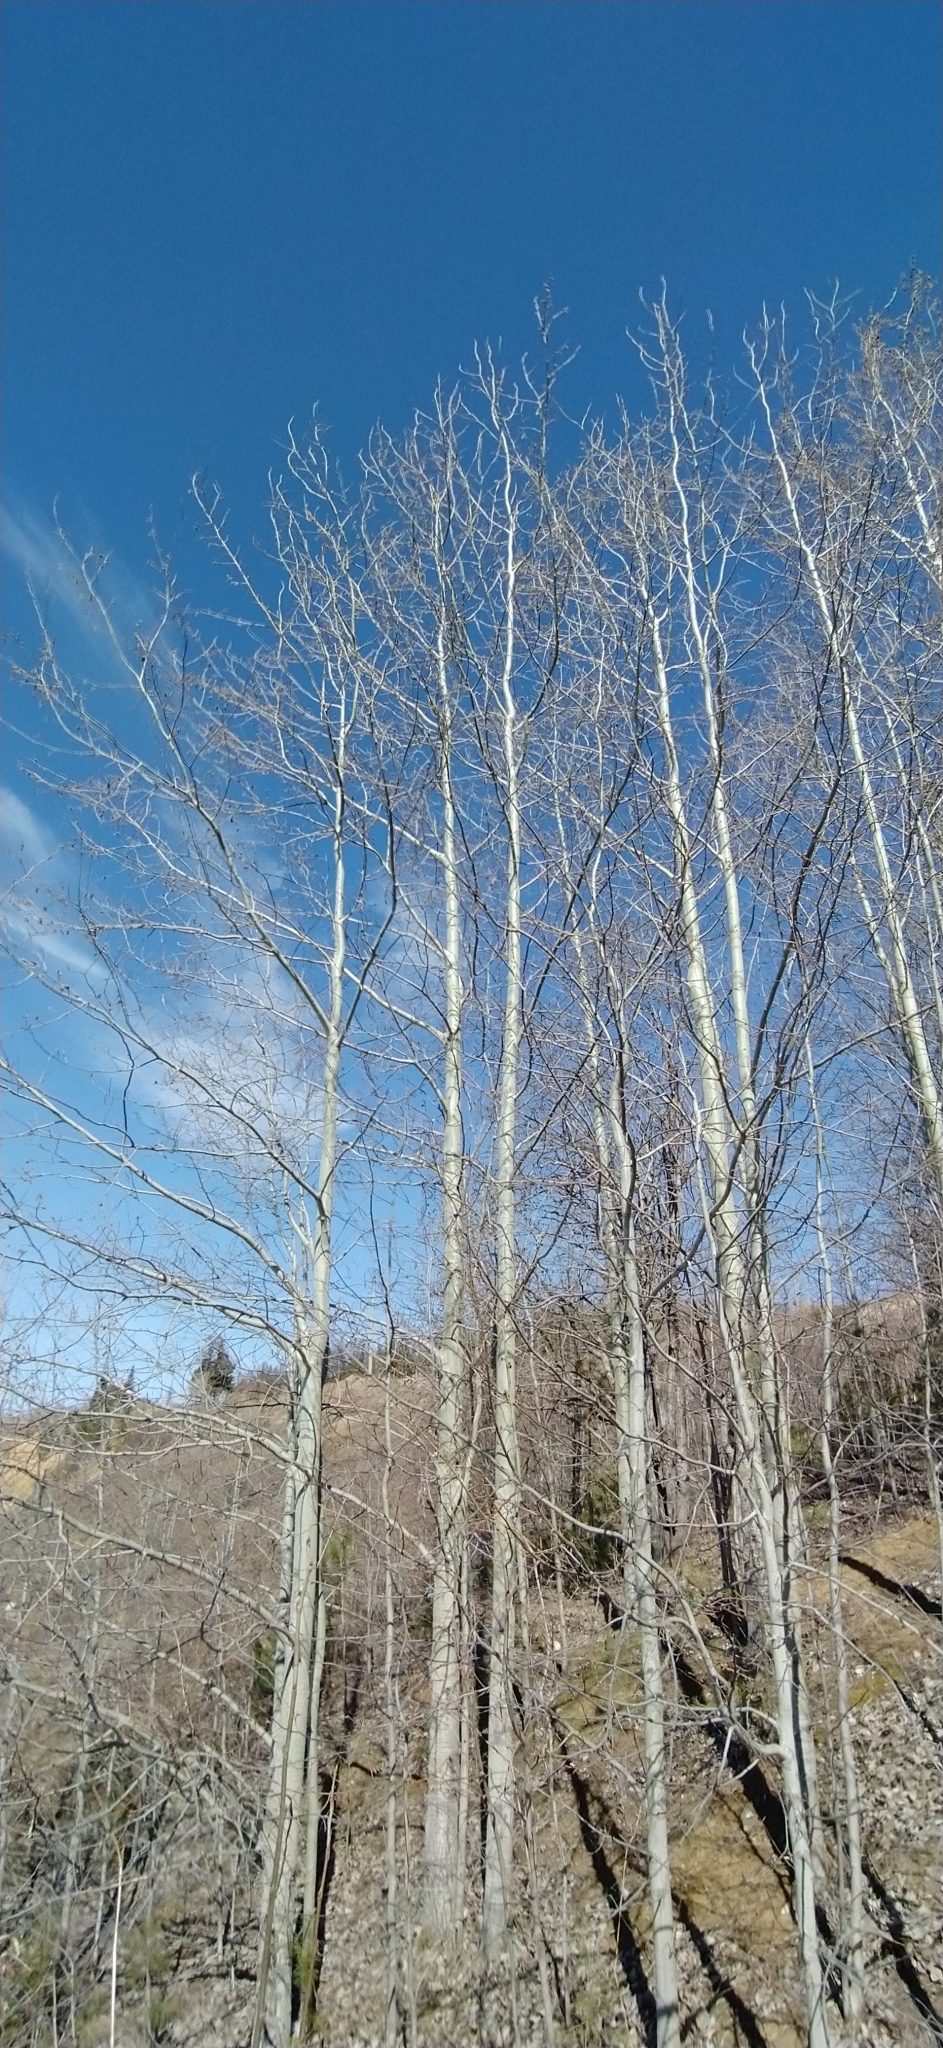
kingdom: Plantae
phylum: Tracheophyta
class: Magnoliopsida
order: Malpighiales
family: Salicaceae
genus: Populus
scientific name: Populus tremula
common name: European aspen
